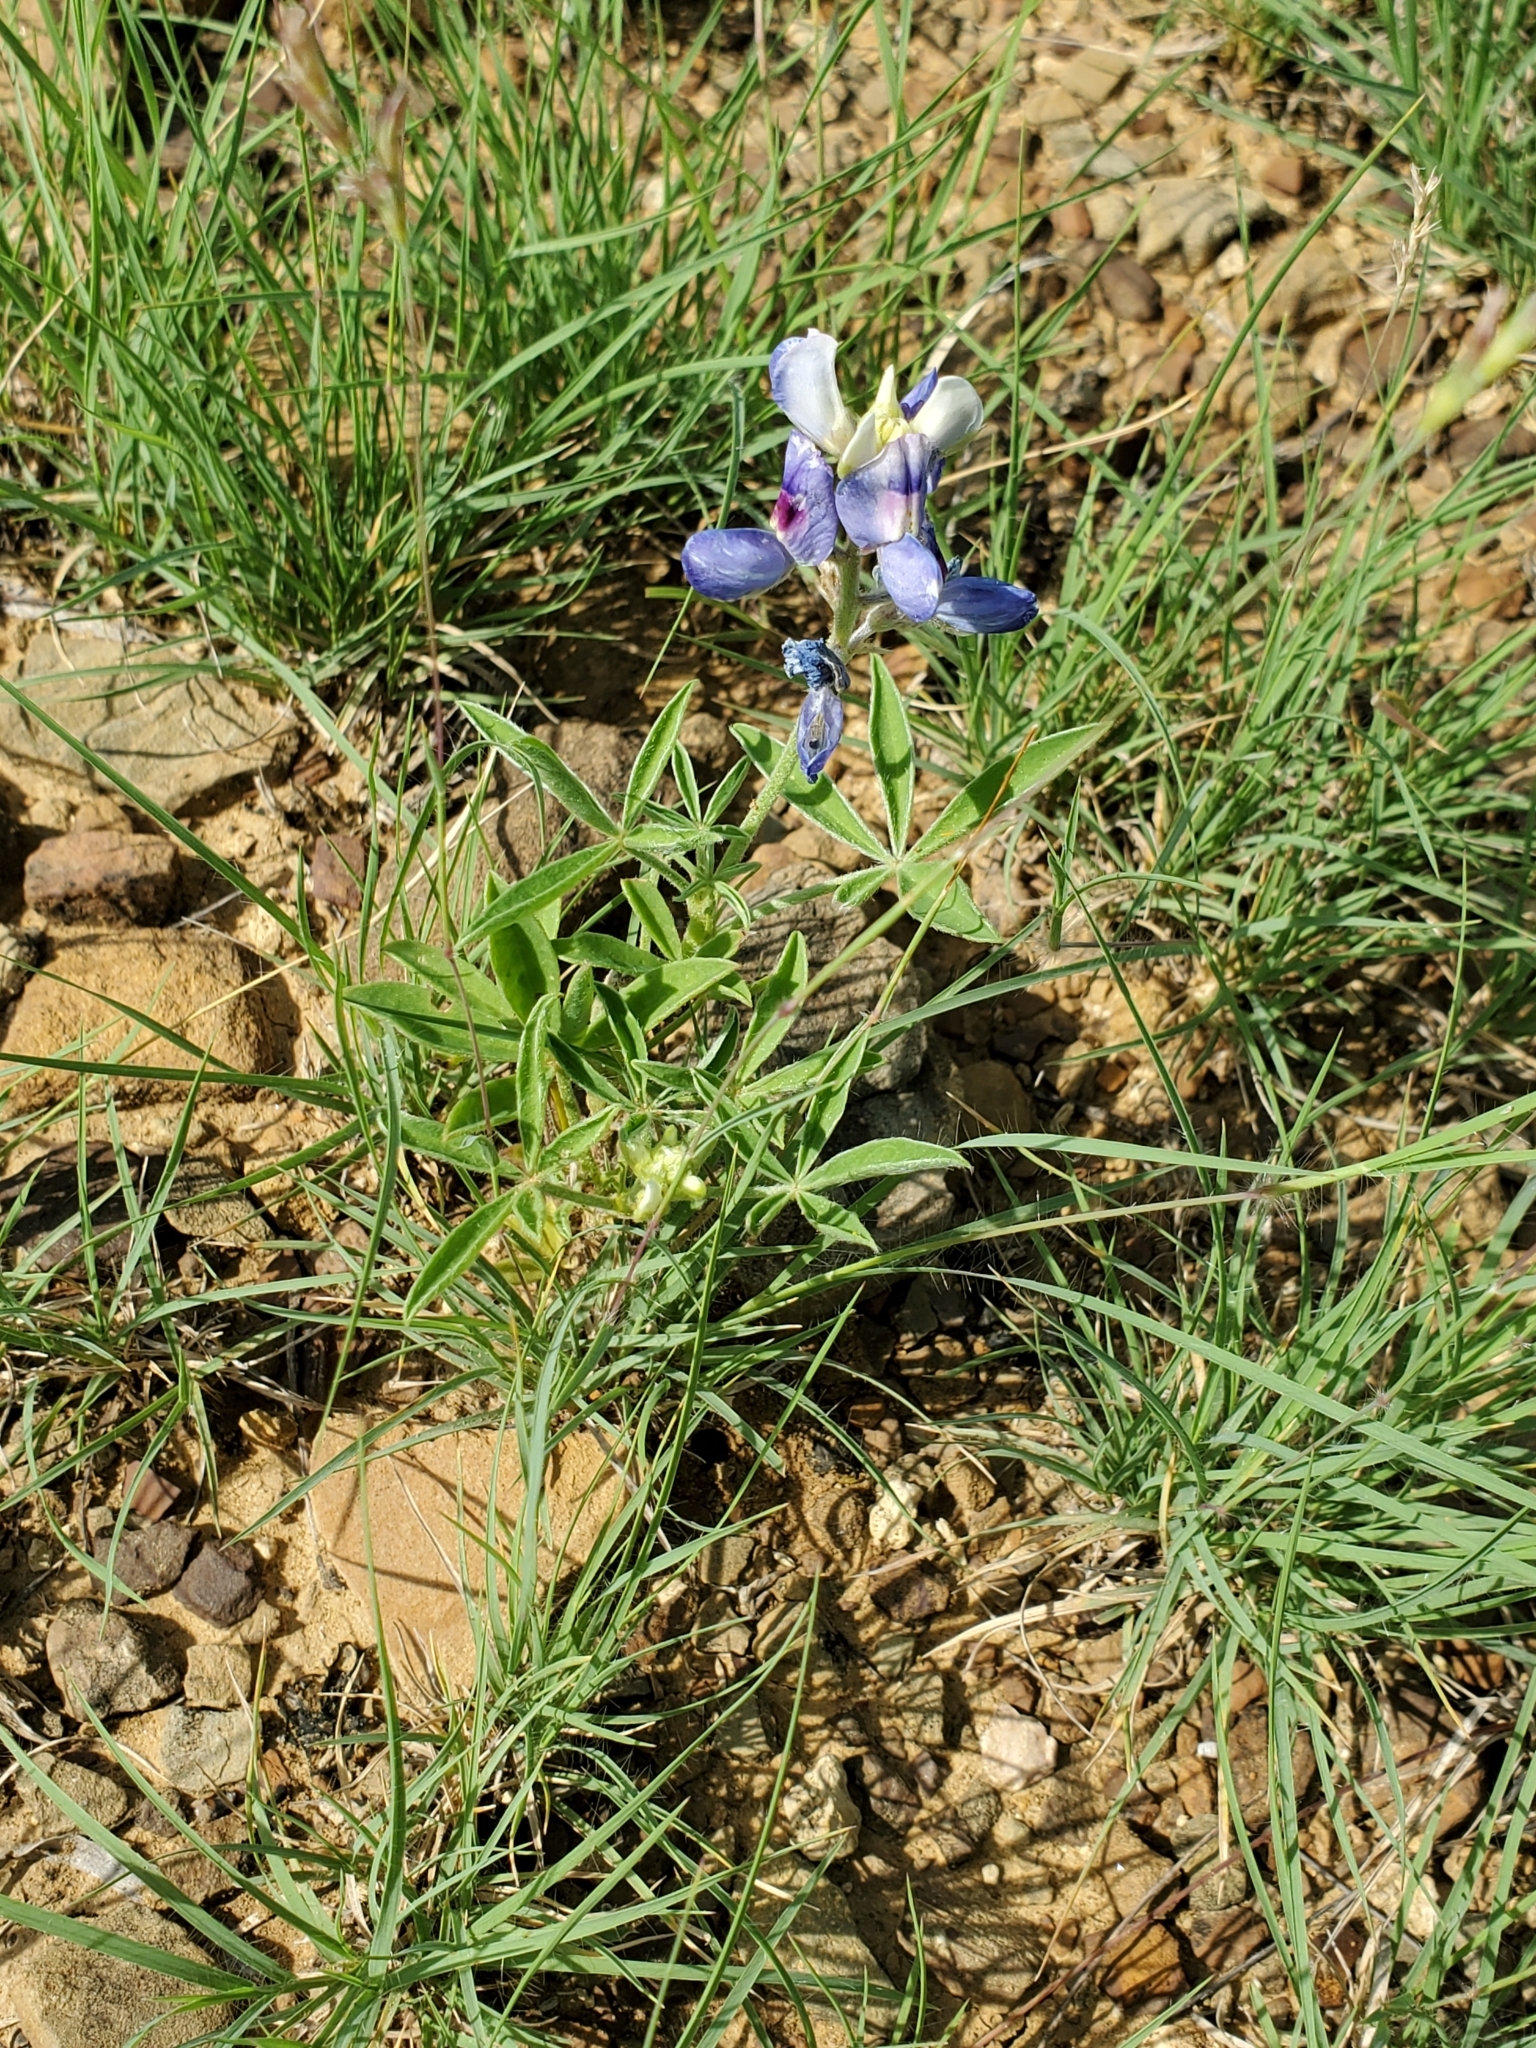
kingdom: Plantae
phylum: Tracheophyta
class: Magnoliopsida
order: Fabales
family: Fabaceae
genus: Lupinus
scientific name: Lupinus texensis
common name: Texas bluebonnet
